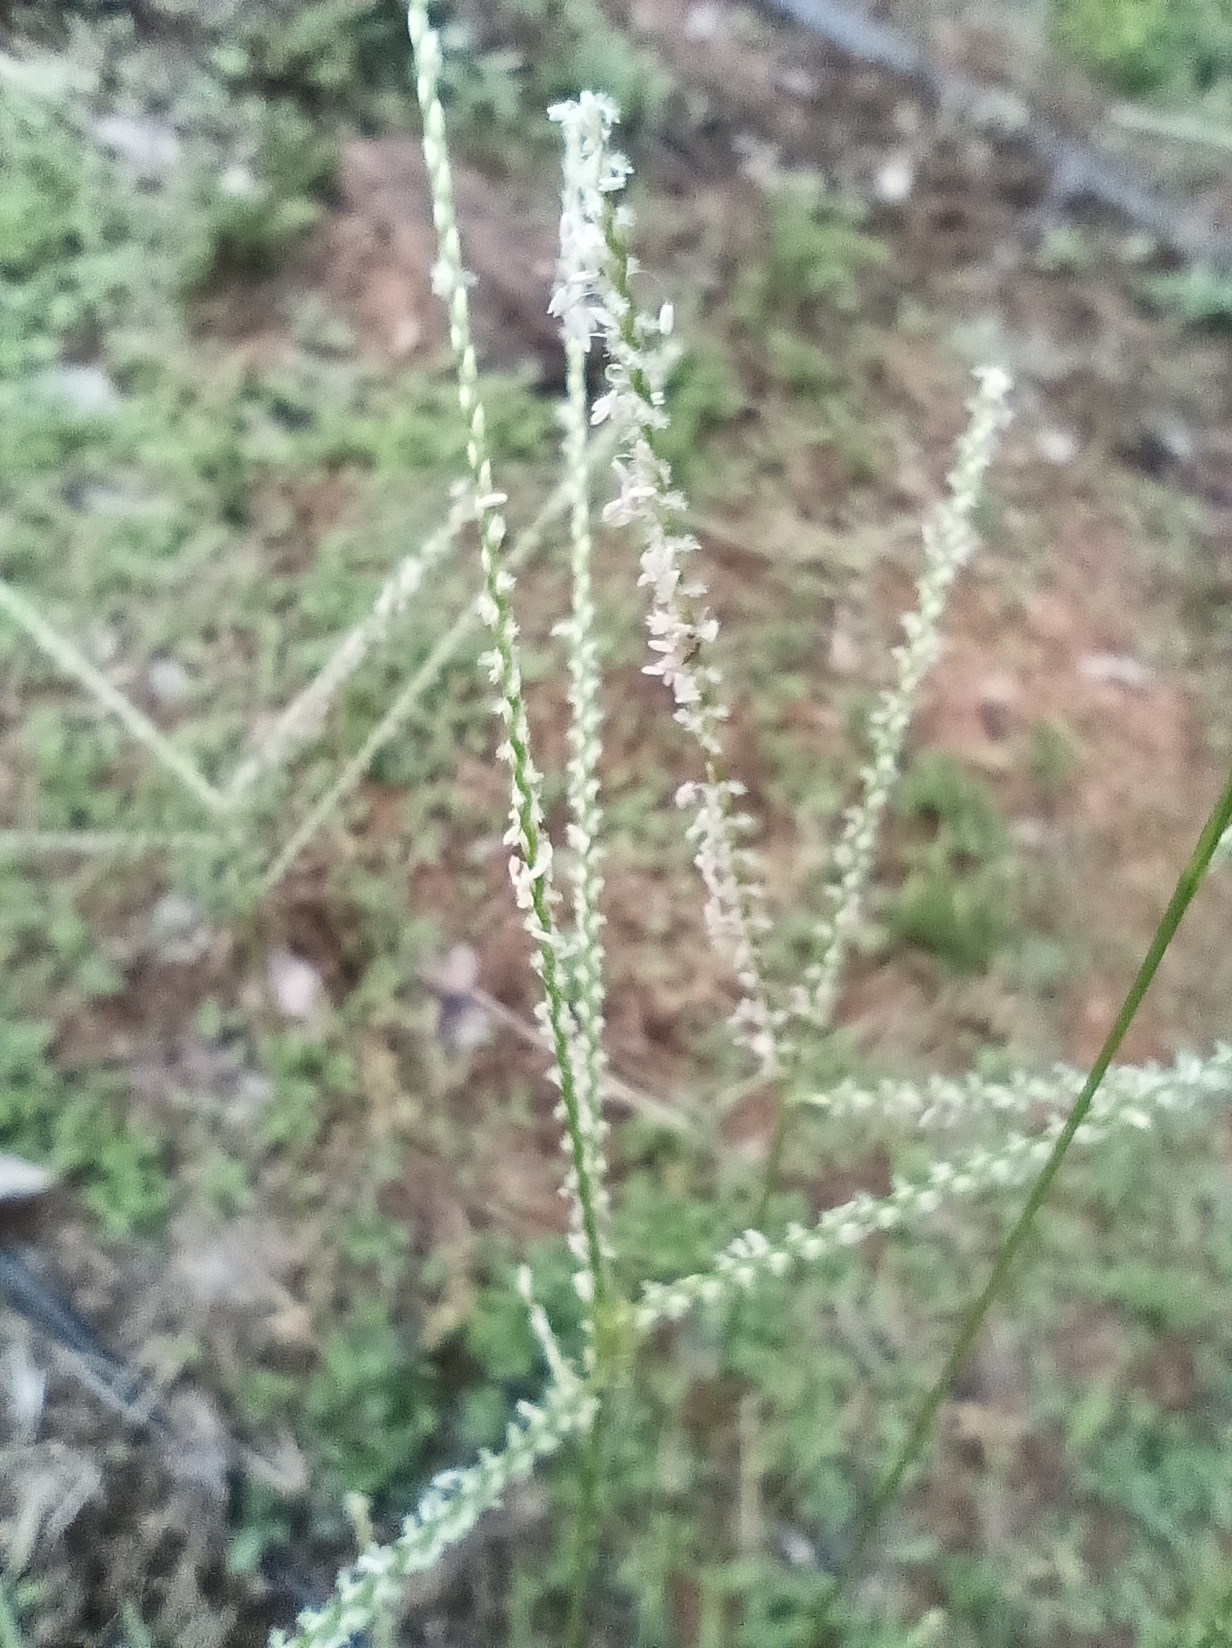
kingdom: Plantae
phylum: Tracheophyta
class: Liliopsida
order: Poales
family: Poaceae
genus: Axonopus
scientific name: Axonopus purpusii
